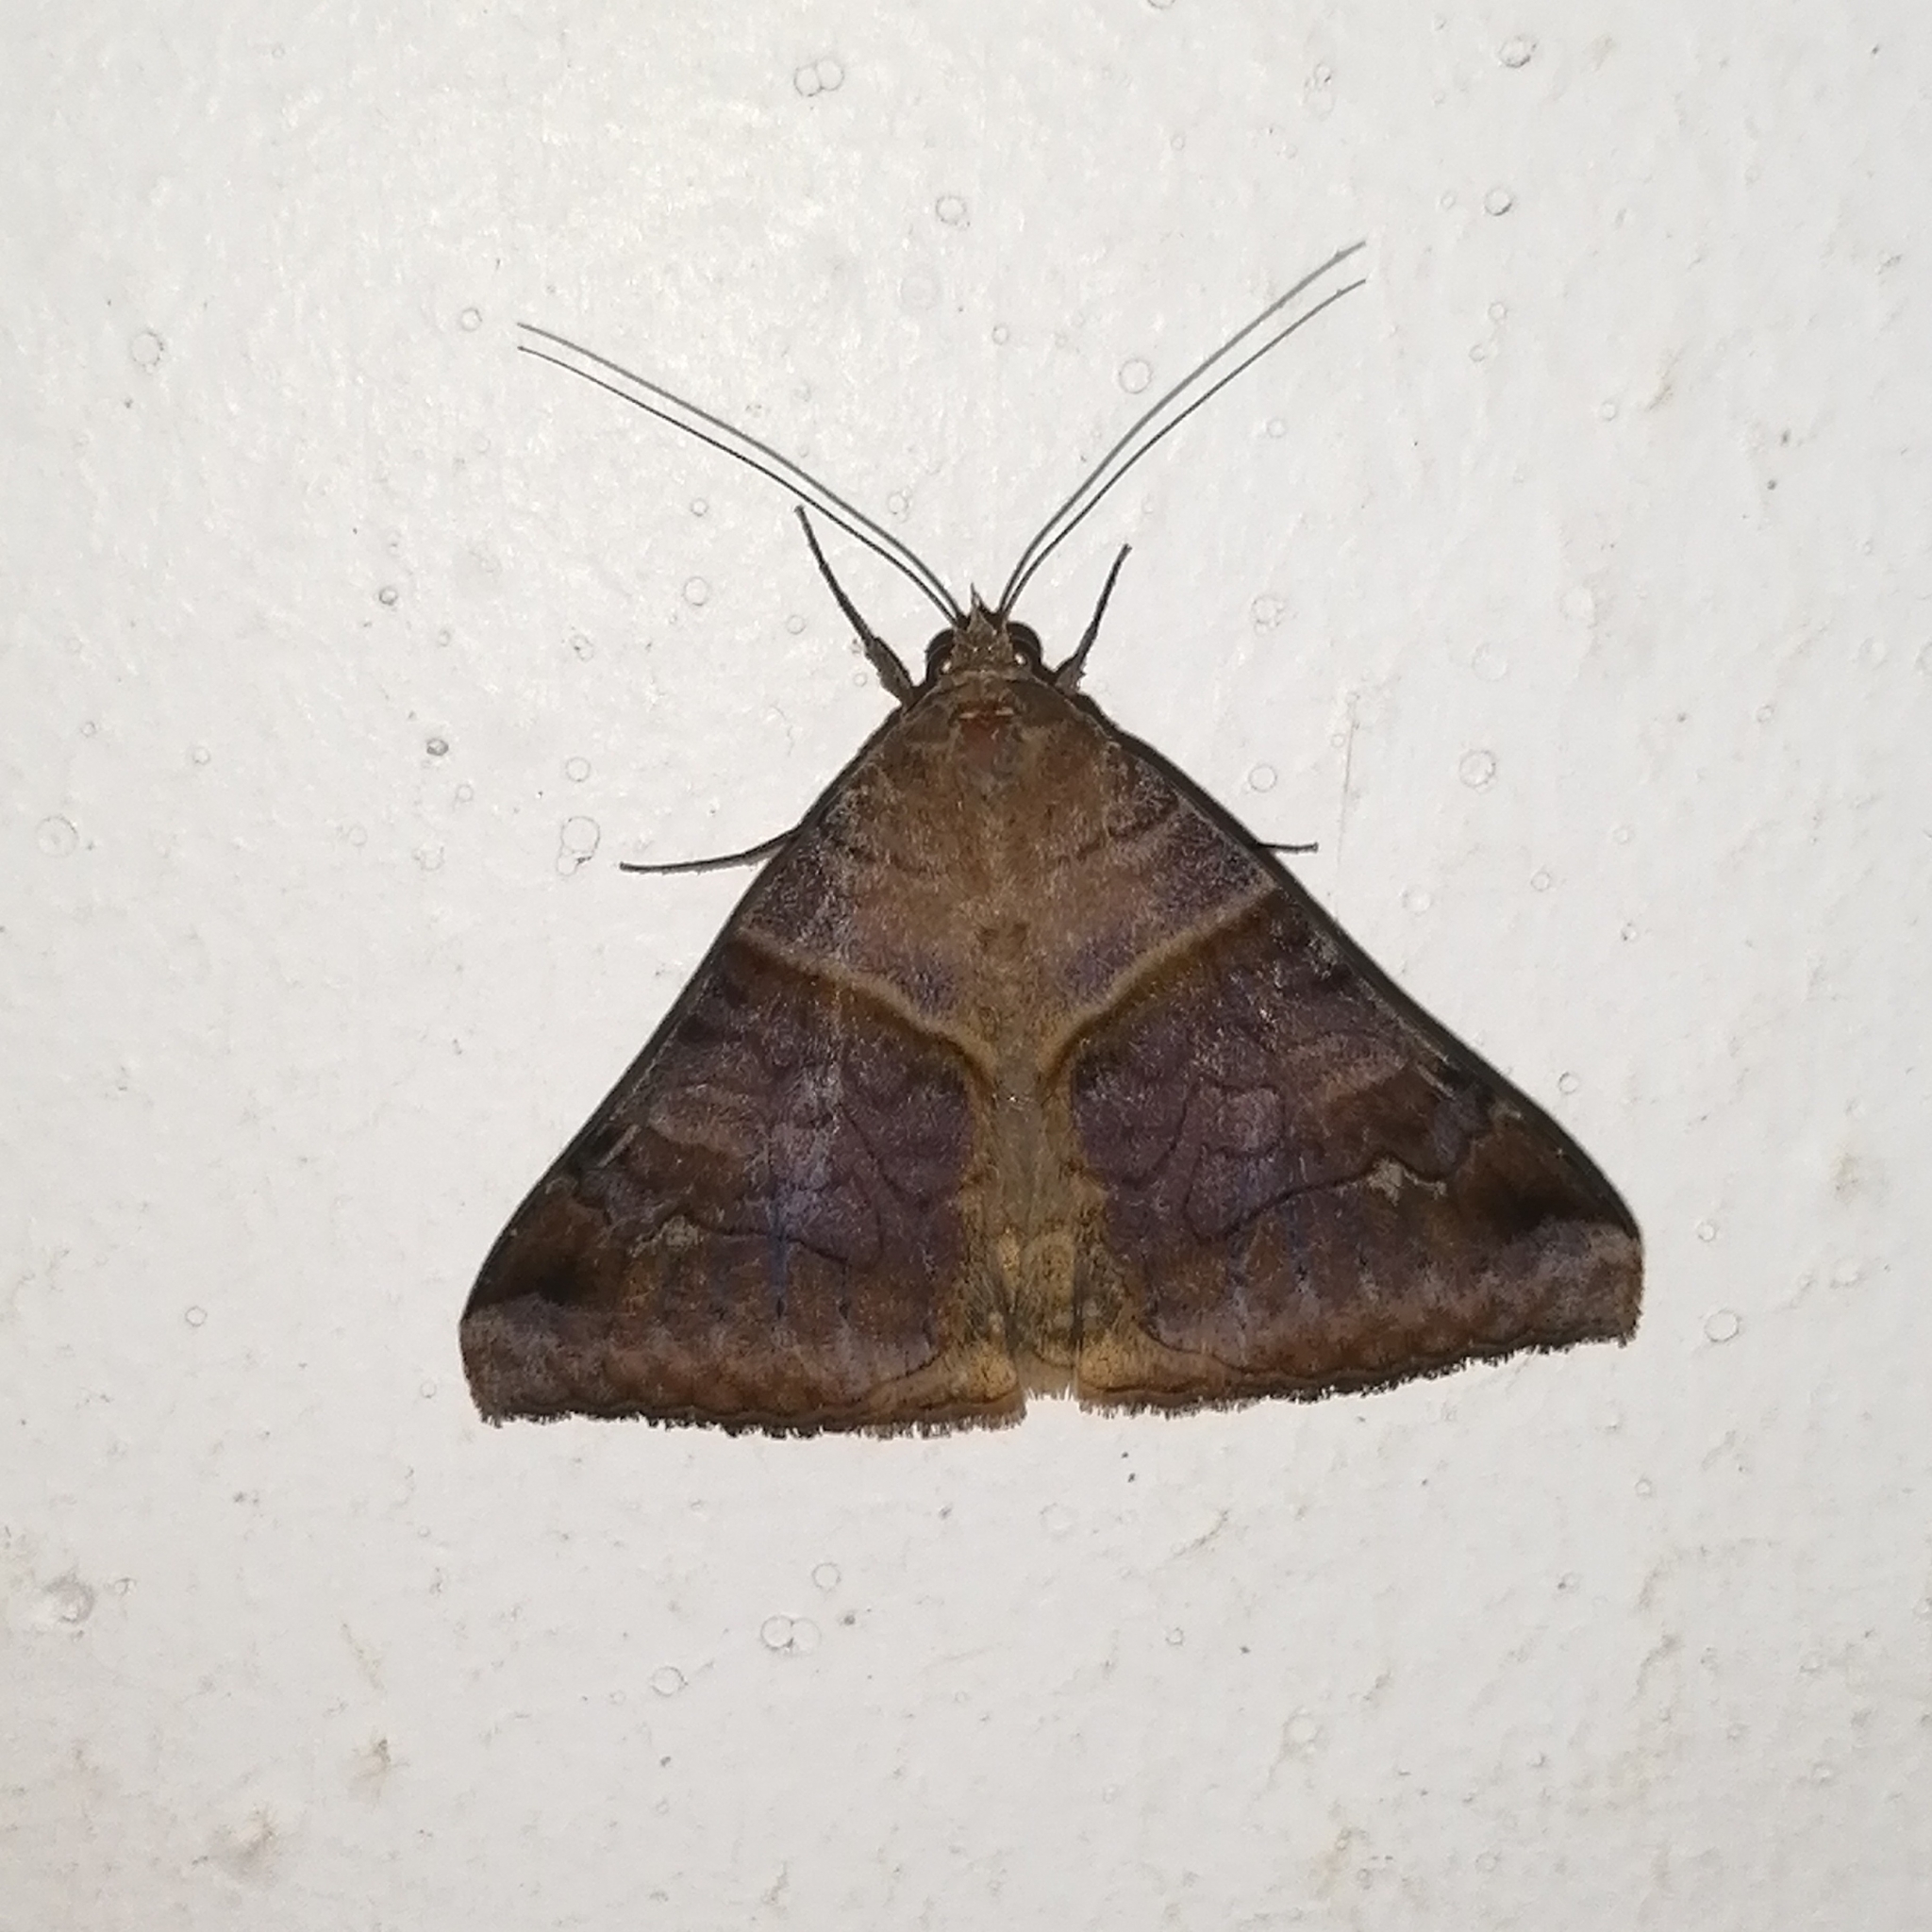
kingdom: Animalia
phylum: Arthropoda
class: Insecta
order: Lepidoptera
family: Erebidae
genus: Mocis
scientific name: Mocis undata
